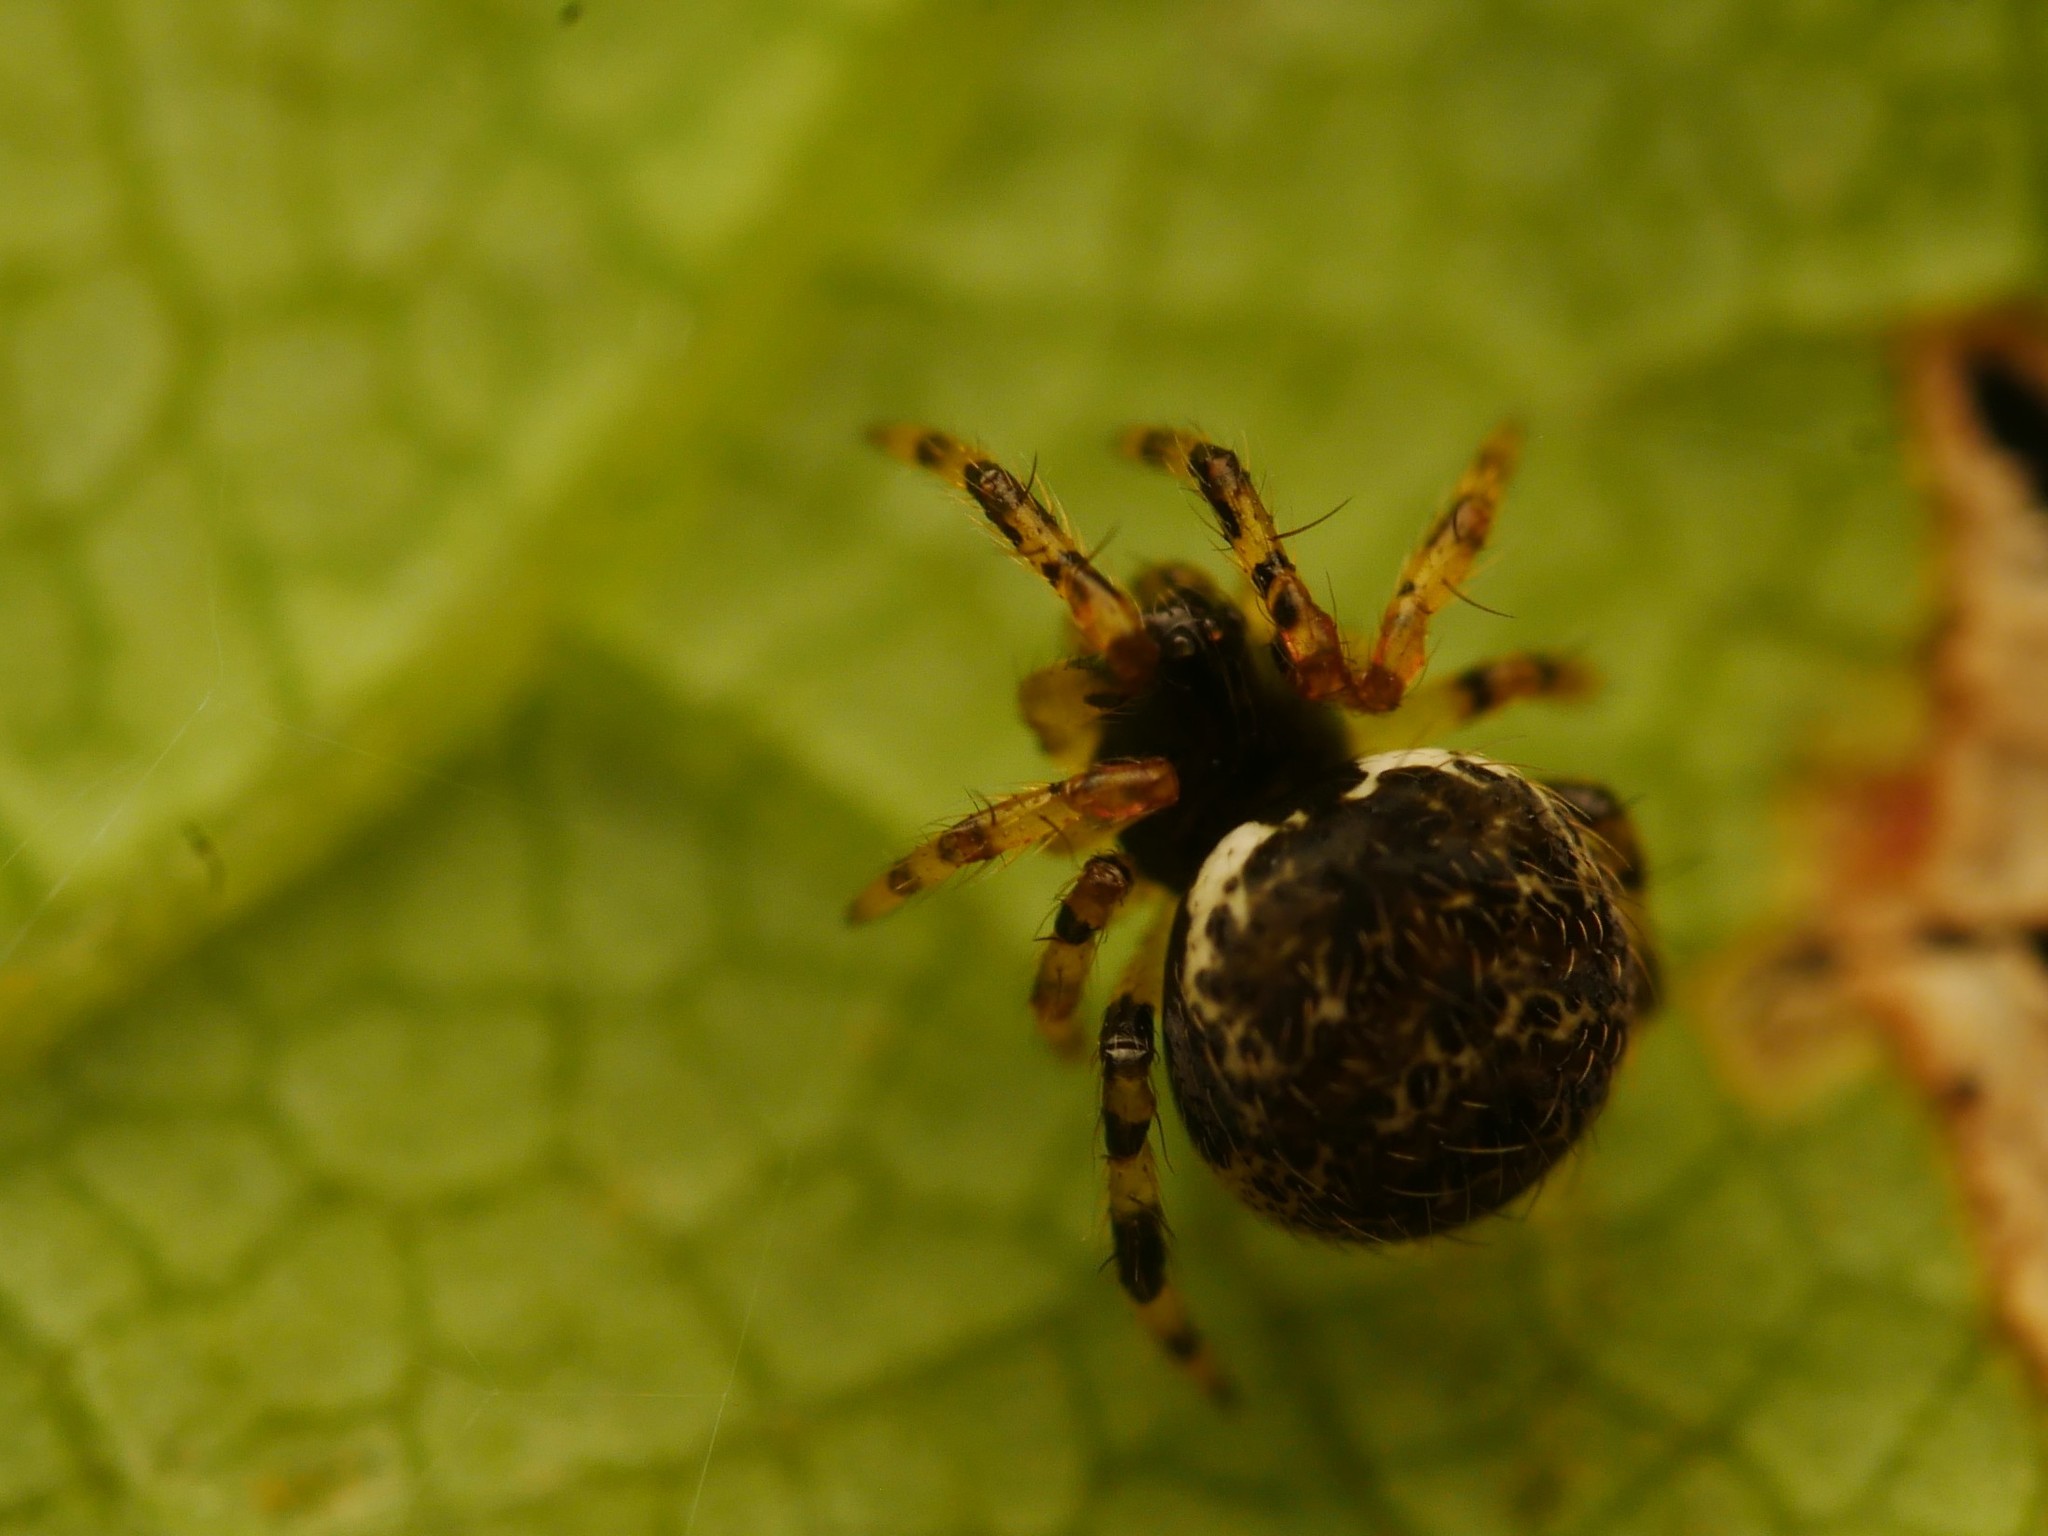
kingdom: Animalia
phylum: Arthropoda
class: Arachnida
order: Araneae
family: Theridiidae
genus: Dipoena
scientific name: Dipoena melanogaster
